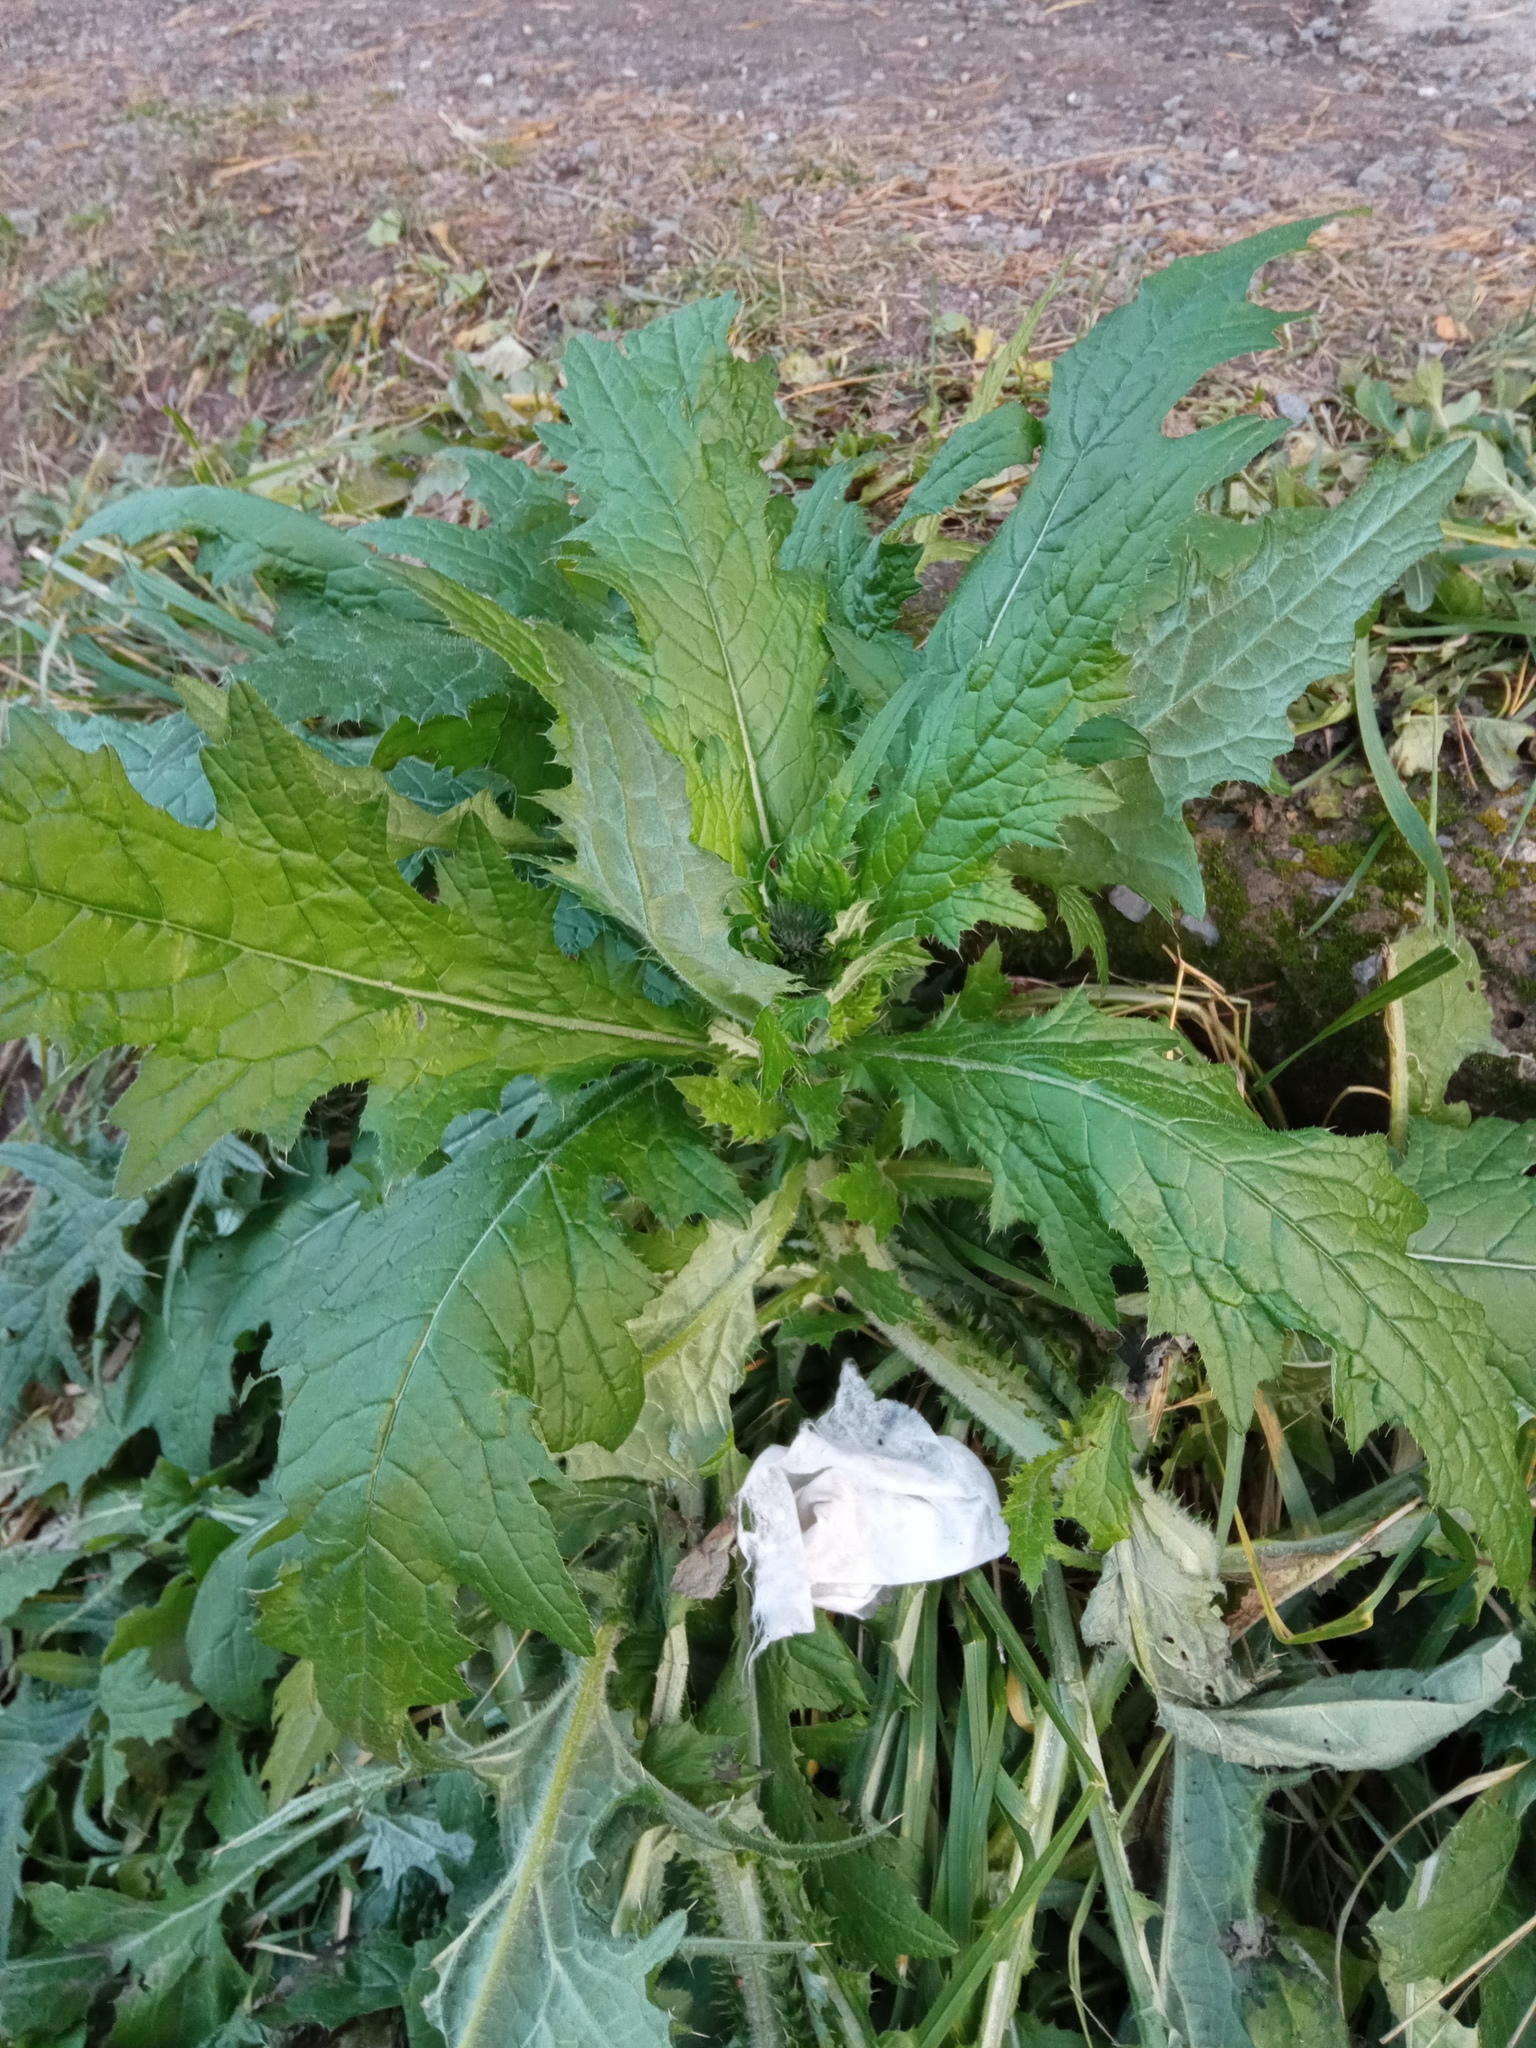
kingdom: Plantae
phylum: Tracheophyta
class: Magnoliopsida
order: Asterales
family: Asteraceae
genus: Carduus
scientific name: Carduus crispus
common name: Welted thistle
